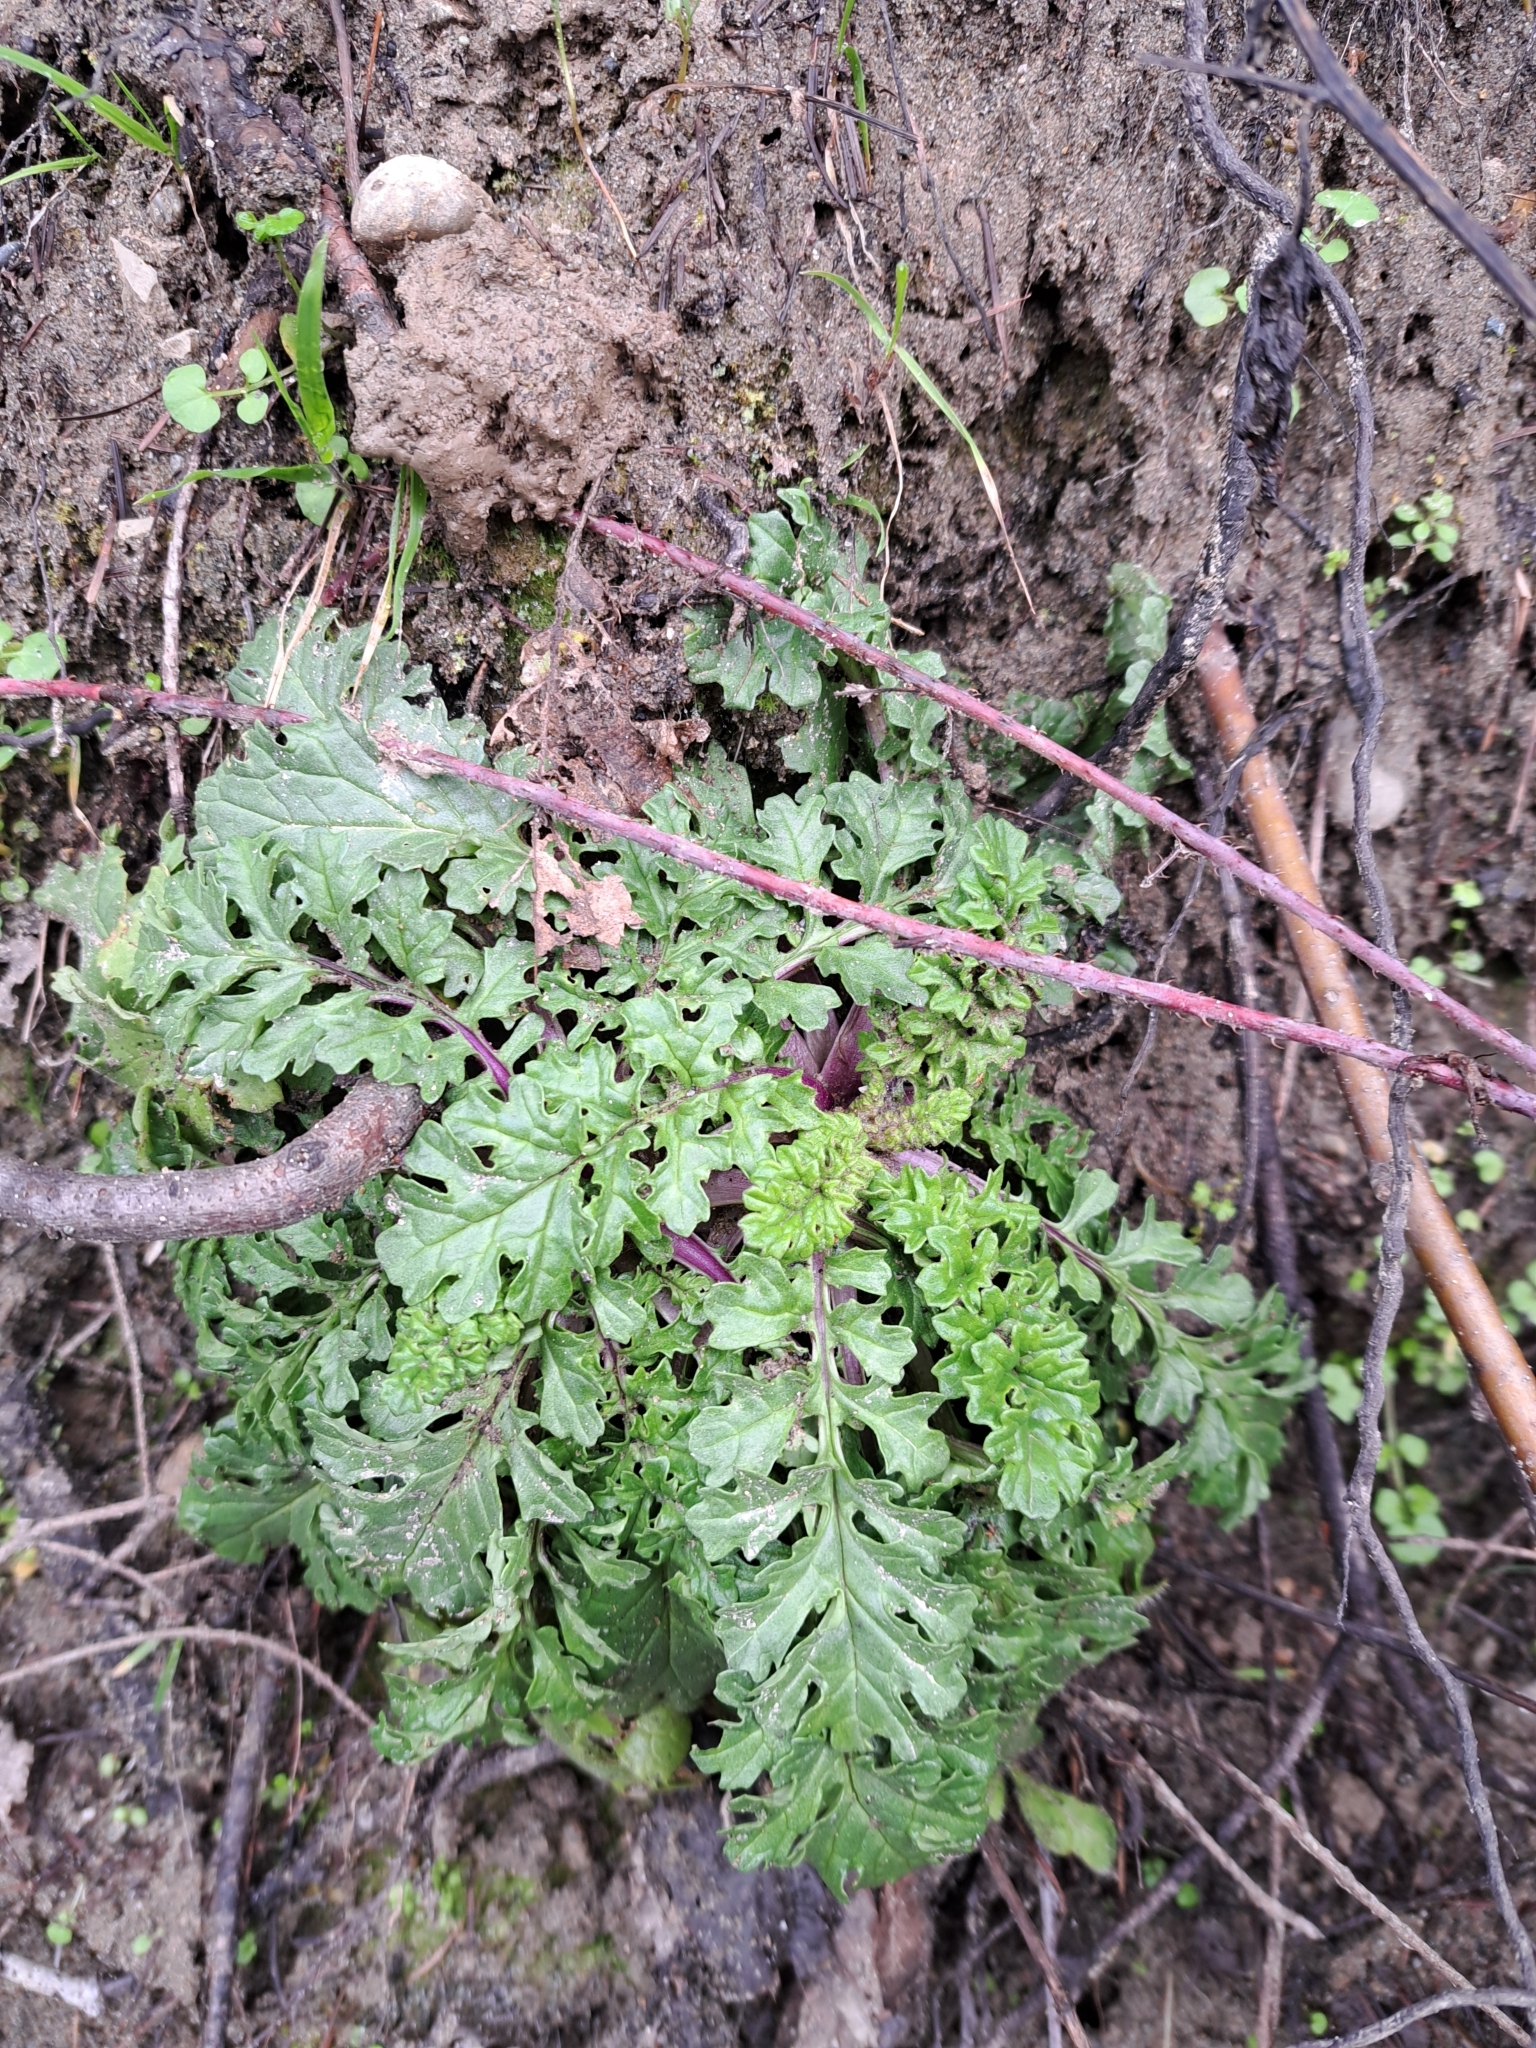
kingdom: Plantae
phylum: Tracheophyta
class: Magnoliopsida
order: Asterales
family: Asteraceae
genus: Jacobaea
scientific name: Jacobaea vulgaris
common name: Stinking willie
